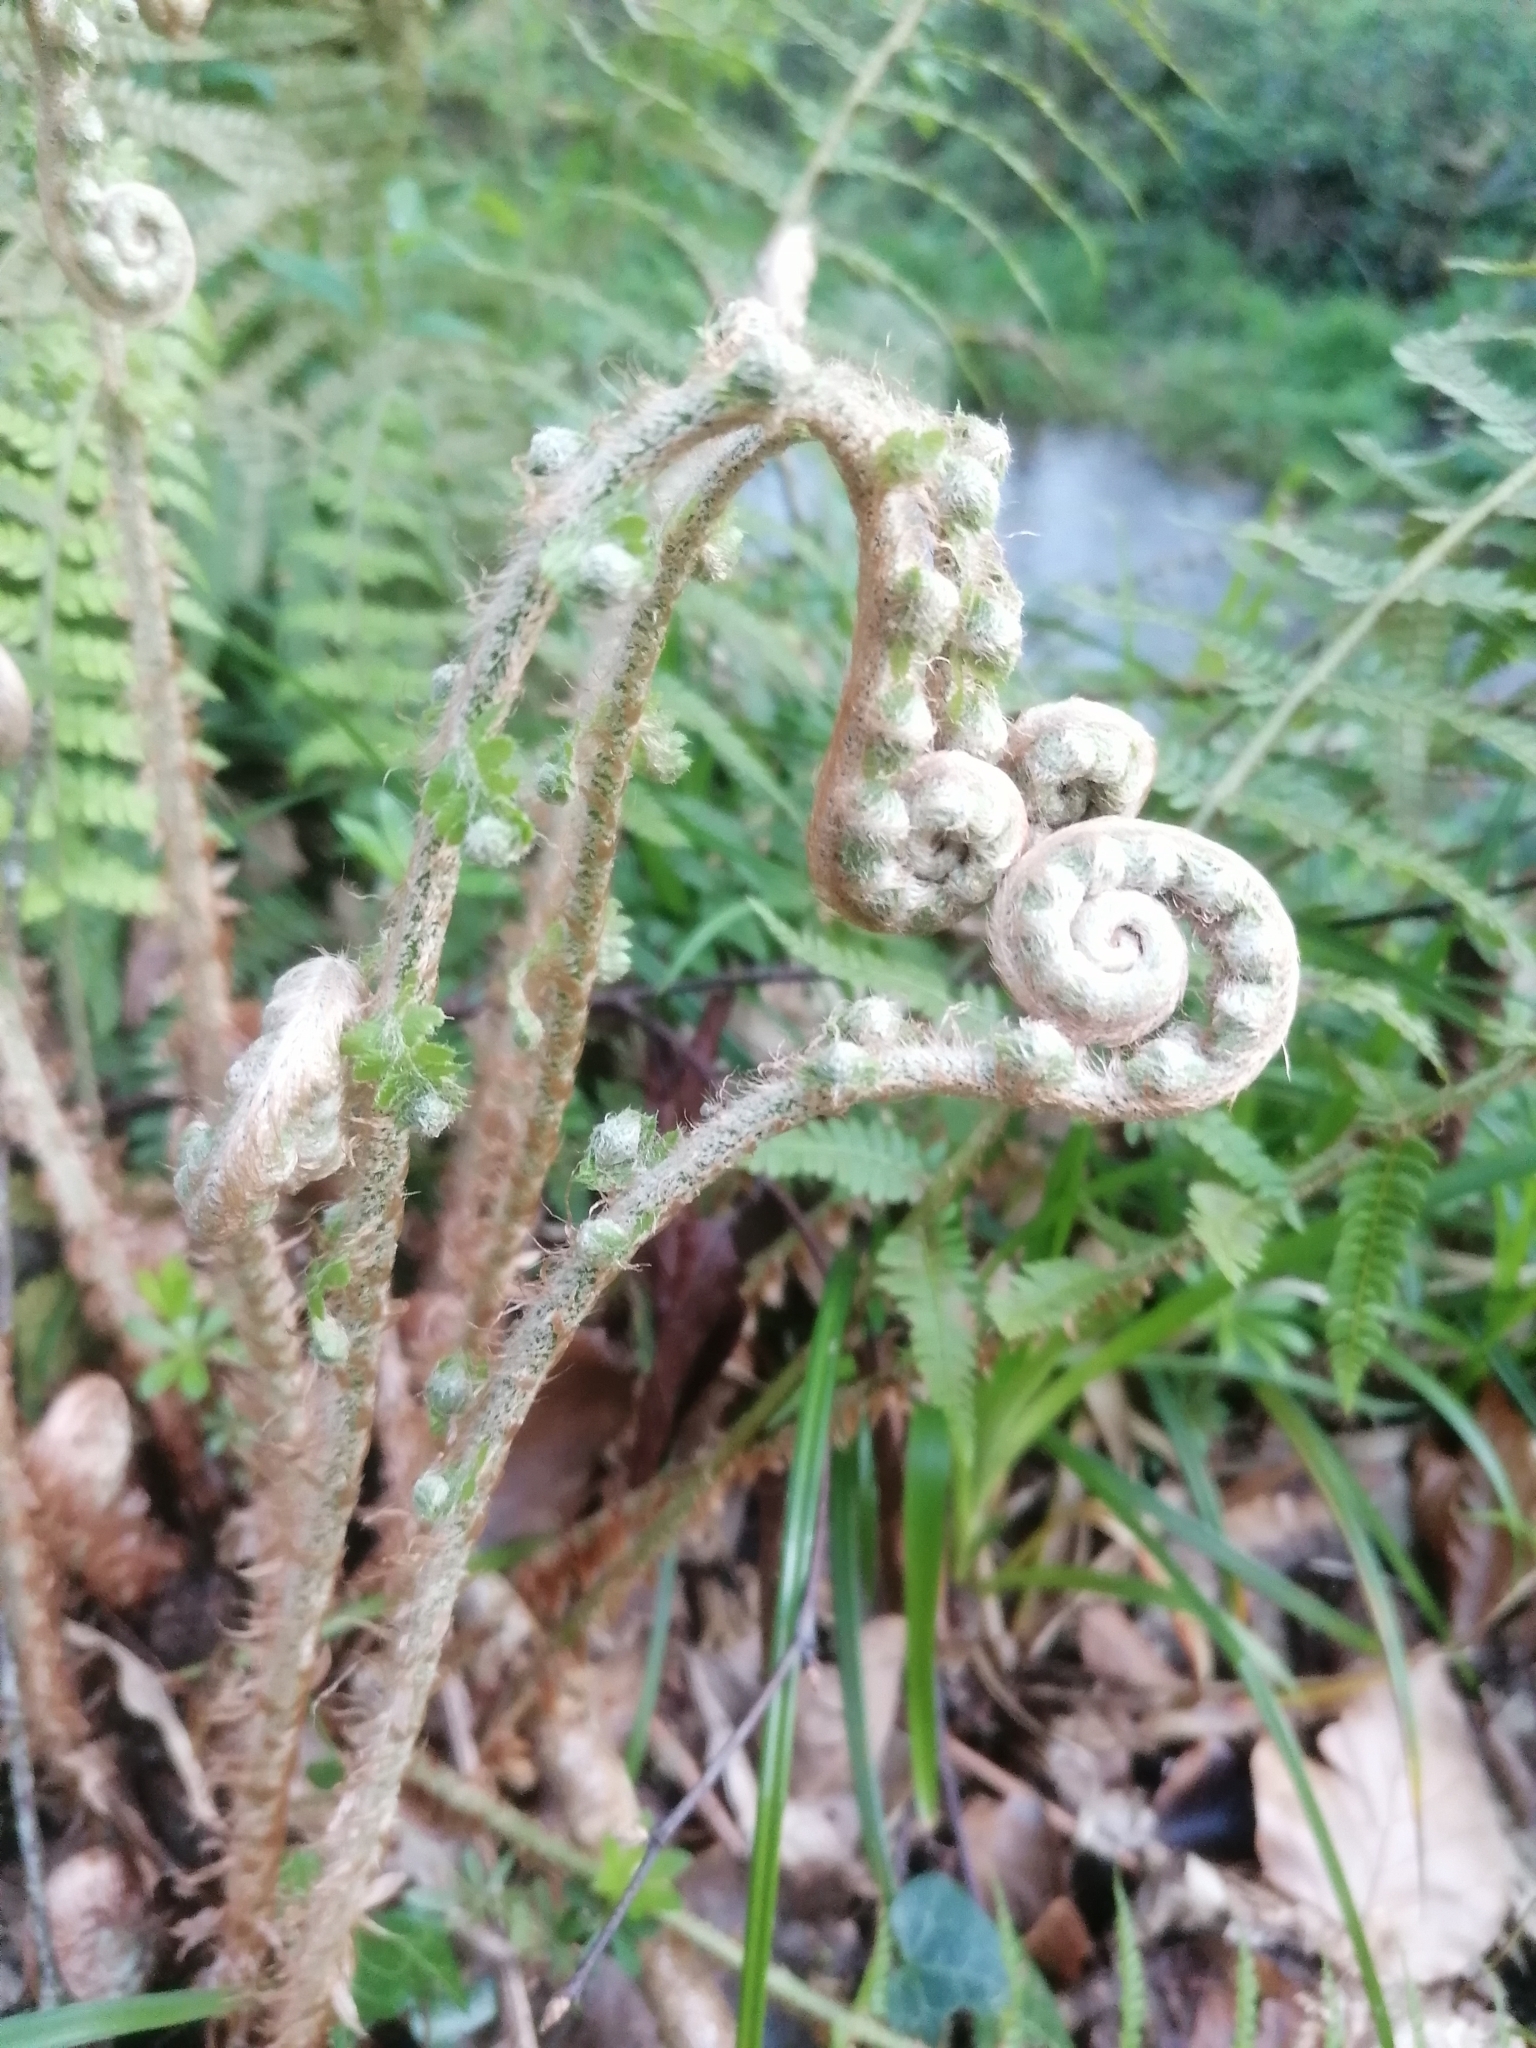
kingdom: Plantae
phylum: Tracheophyta
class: Polypodiopsida
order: Polypodiales
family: Dryopteridaceae
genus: Polystichum
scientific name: Polystichum setiferum
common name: Soft shield-fern
